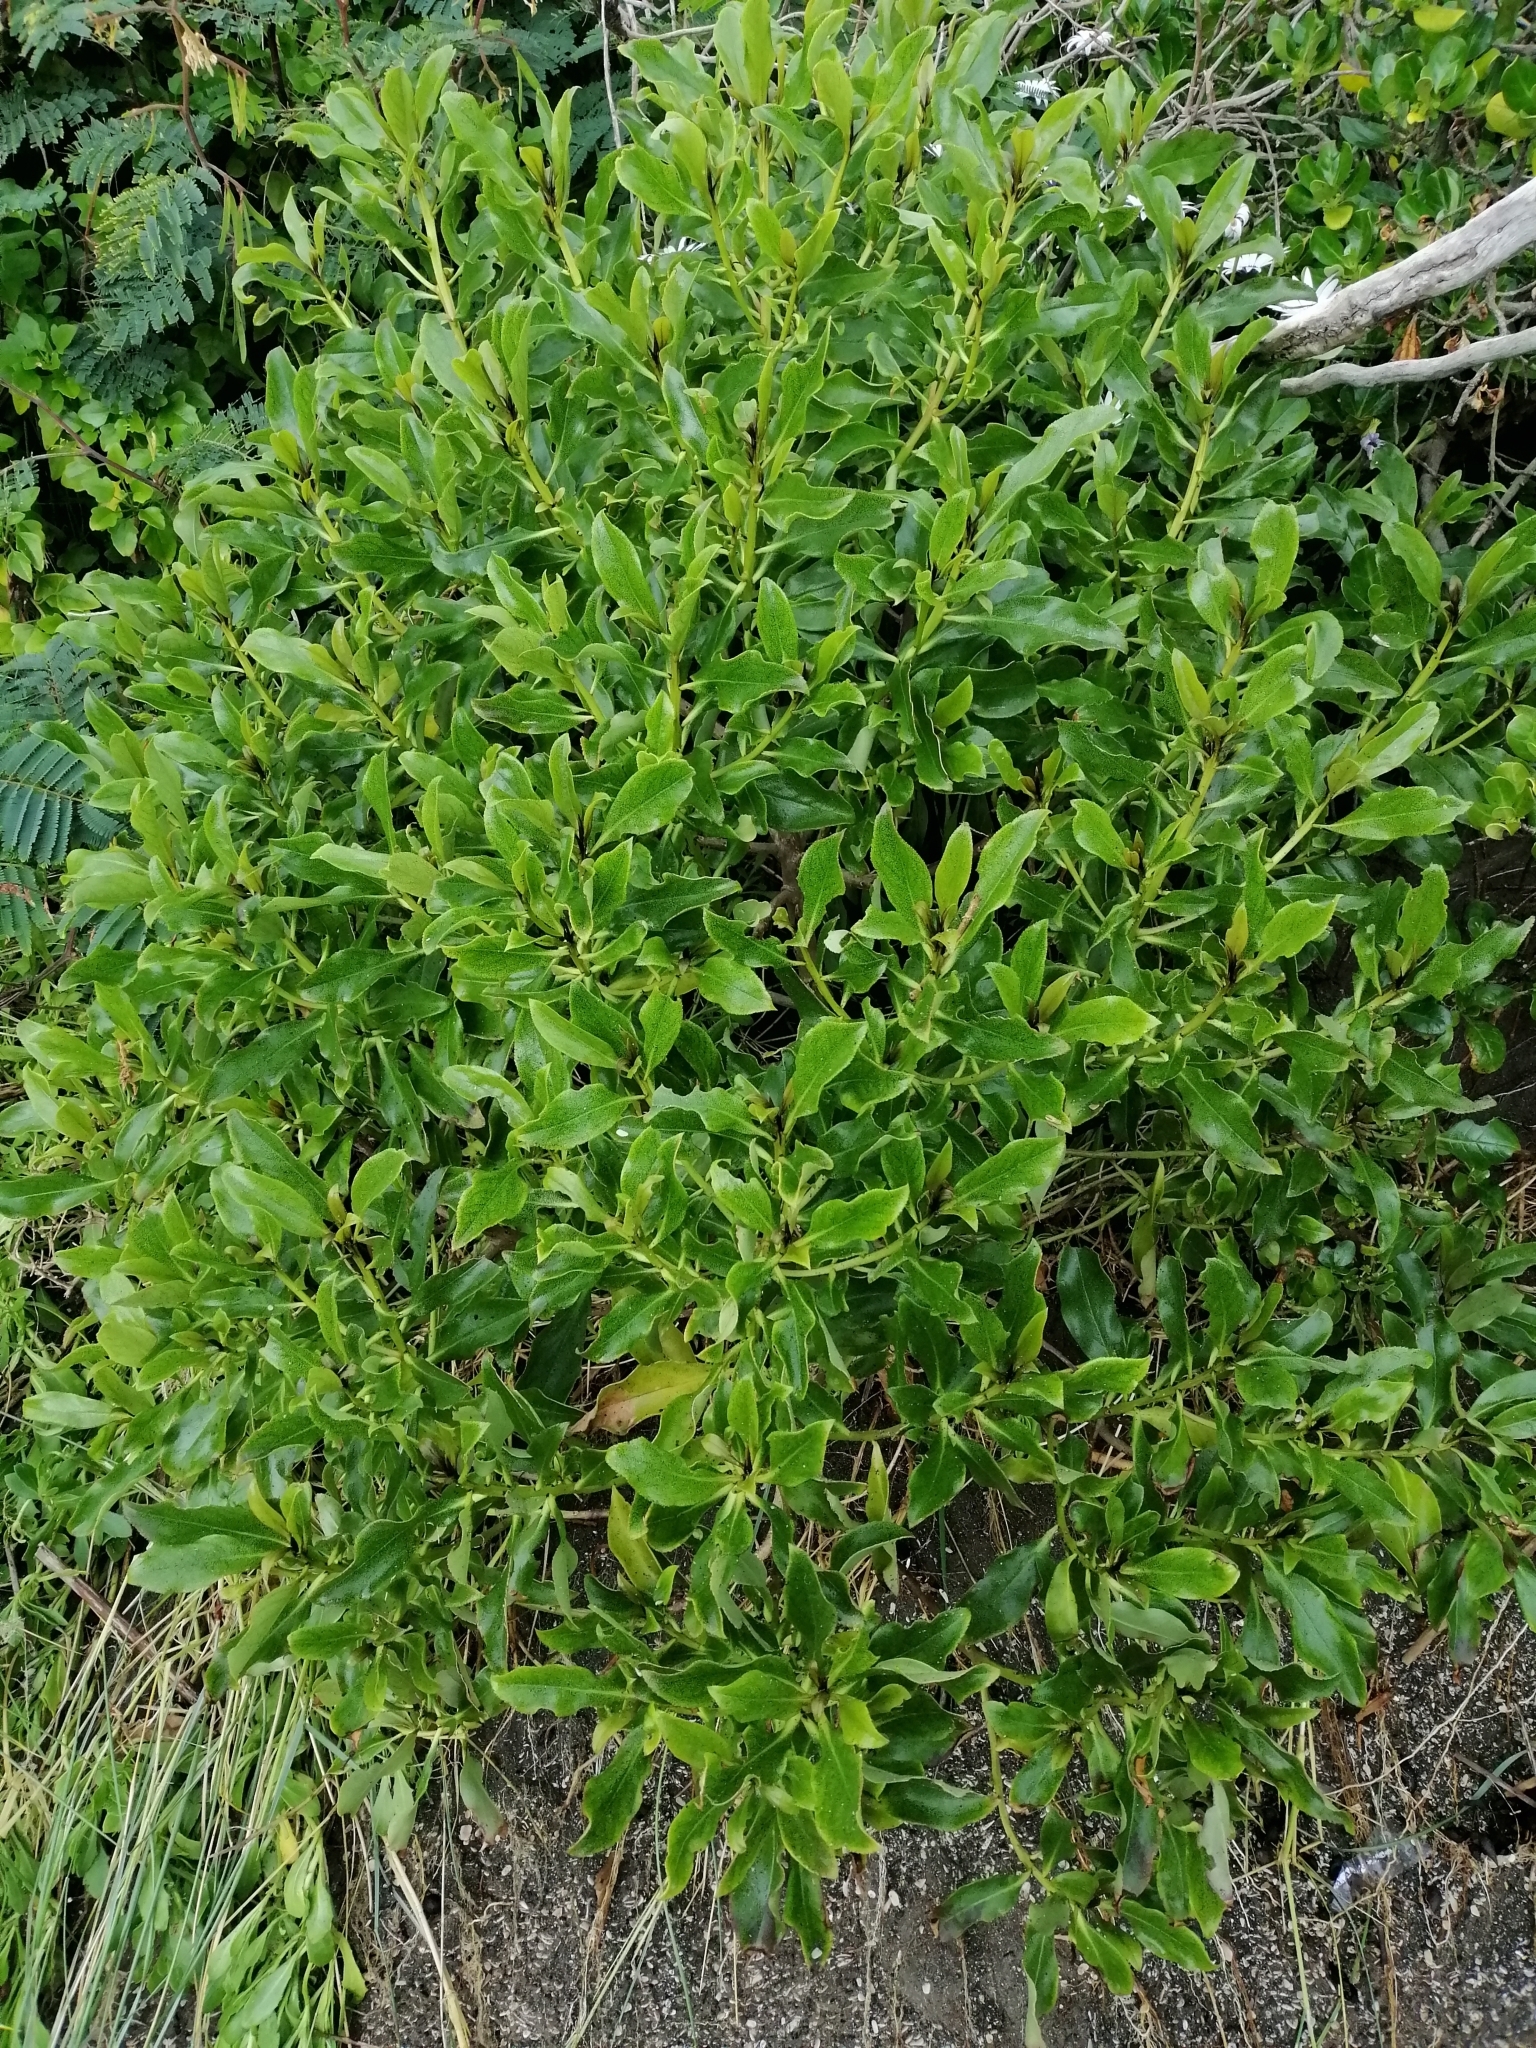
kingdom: Plantae
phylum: Tracheophyta
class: Magnoliopsida
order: Lamiales
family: Scrophulariaceae
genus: Myoporum
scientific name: Myoporum laetum
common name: Ngaio tree
